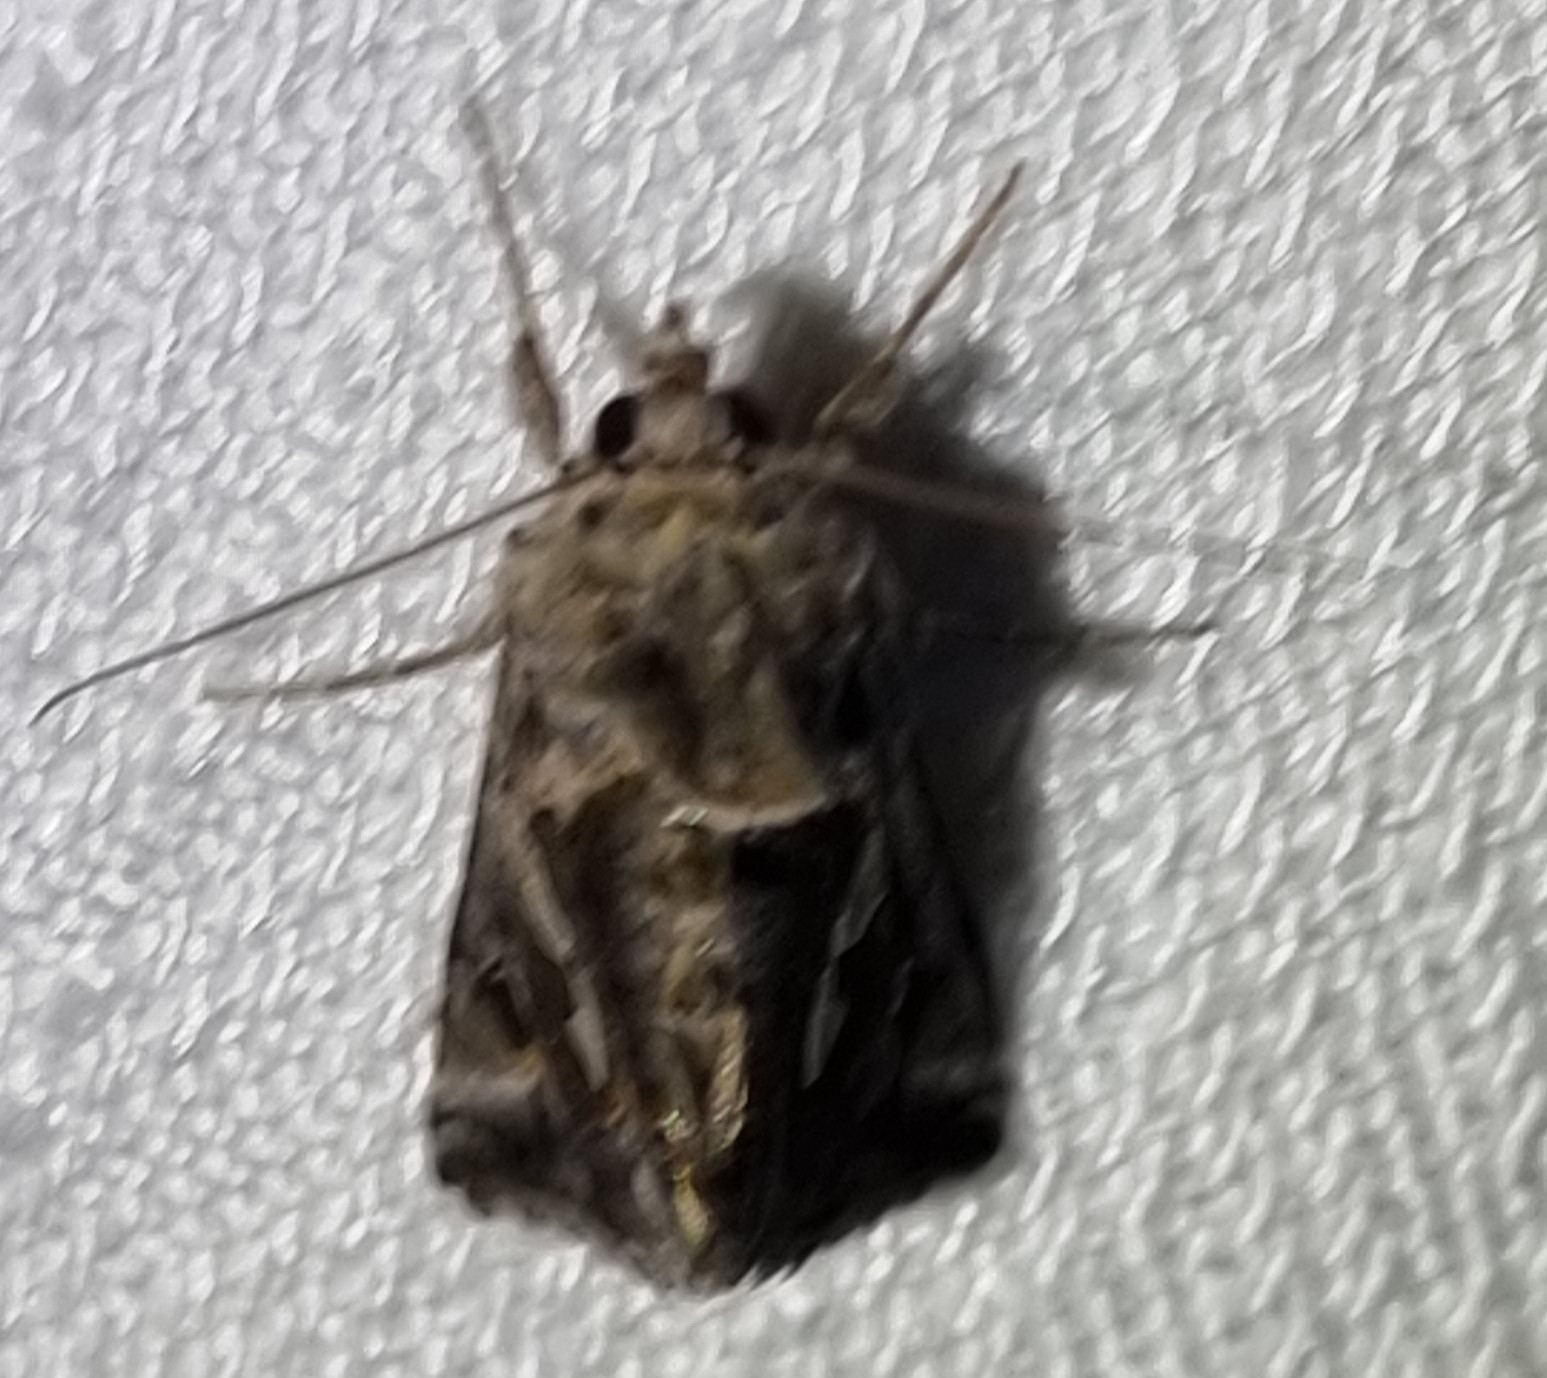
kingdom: Animalia
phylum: Arthropoda
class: Insecta
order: Lepidoptera
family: Noctuidae
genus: Chrysodeixis
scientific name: Chrysodeixis argentifera
